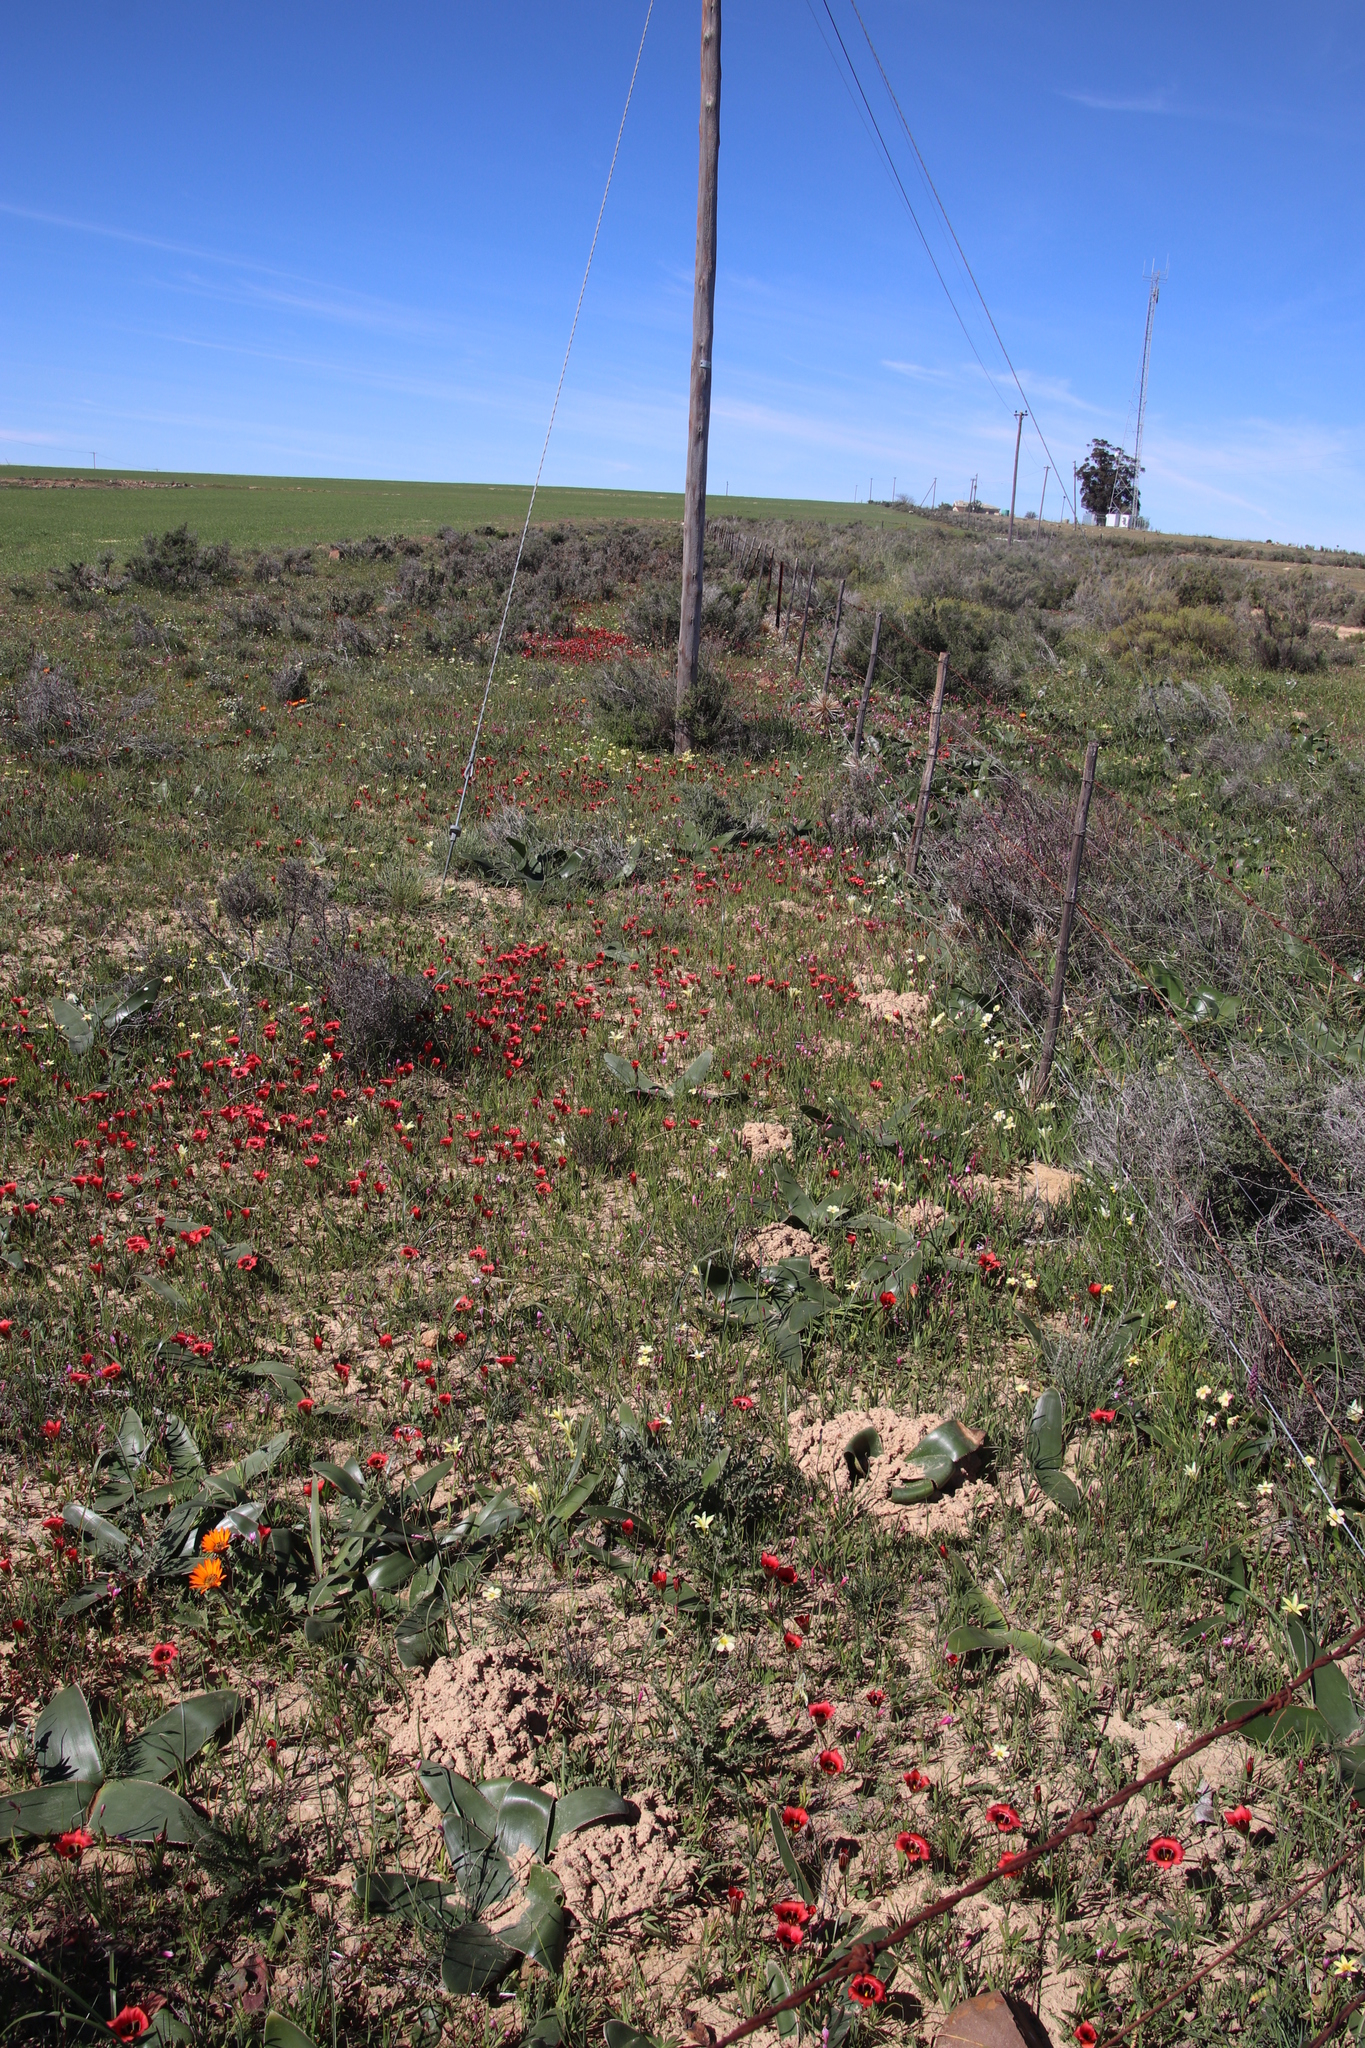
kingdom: Plantae
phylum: Tracheophyta
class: Liliopsida
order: Asparagales
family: Iridaceae
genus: Romulea
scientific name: Romulea sabulosa
